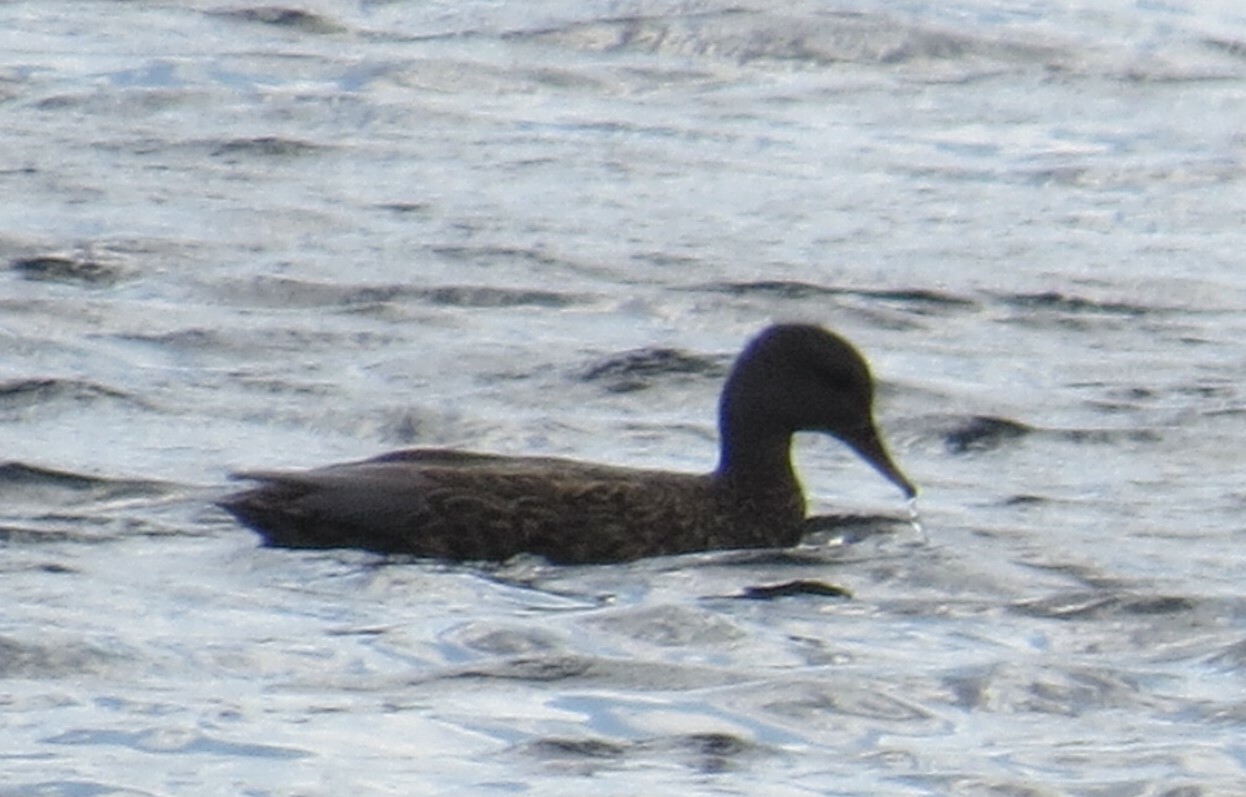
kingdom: Animalia
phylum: Chordata
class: Aves
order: Anseriformes
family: Anatidae
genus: Mareca
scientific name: Mareca strepera
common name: Gadwall
